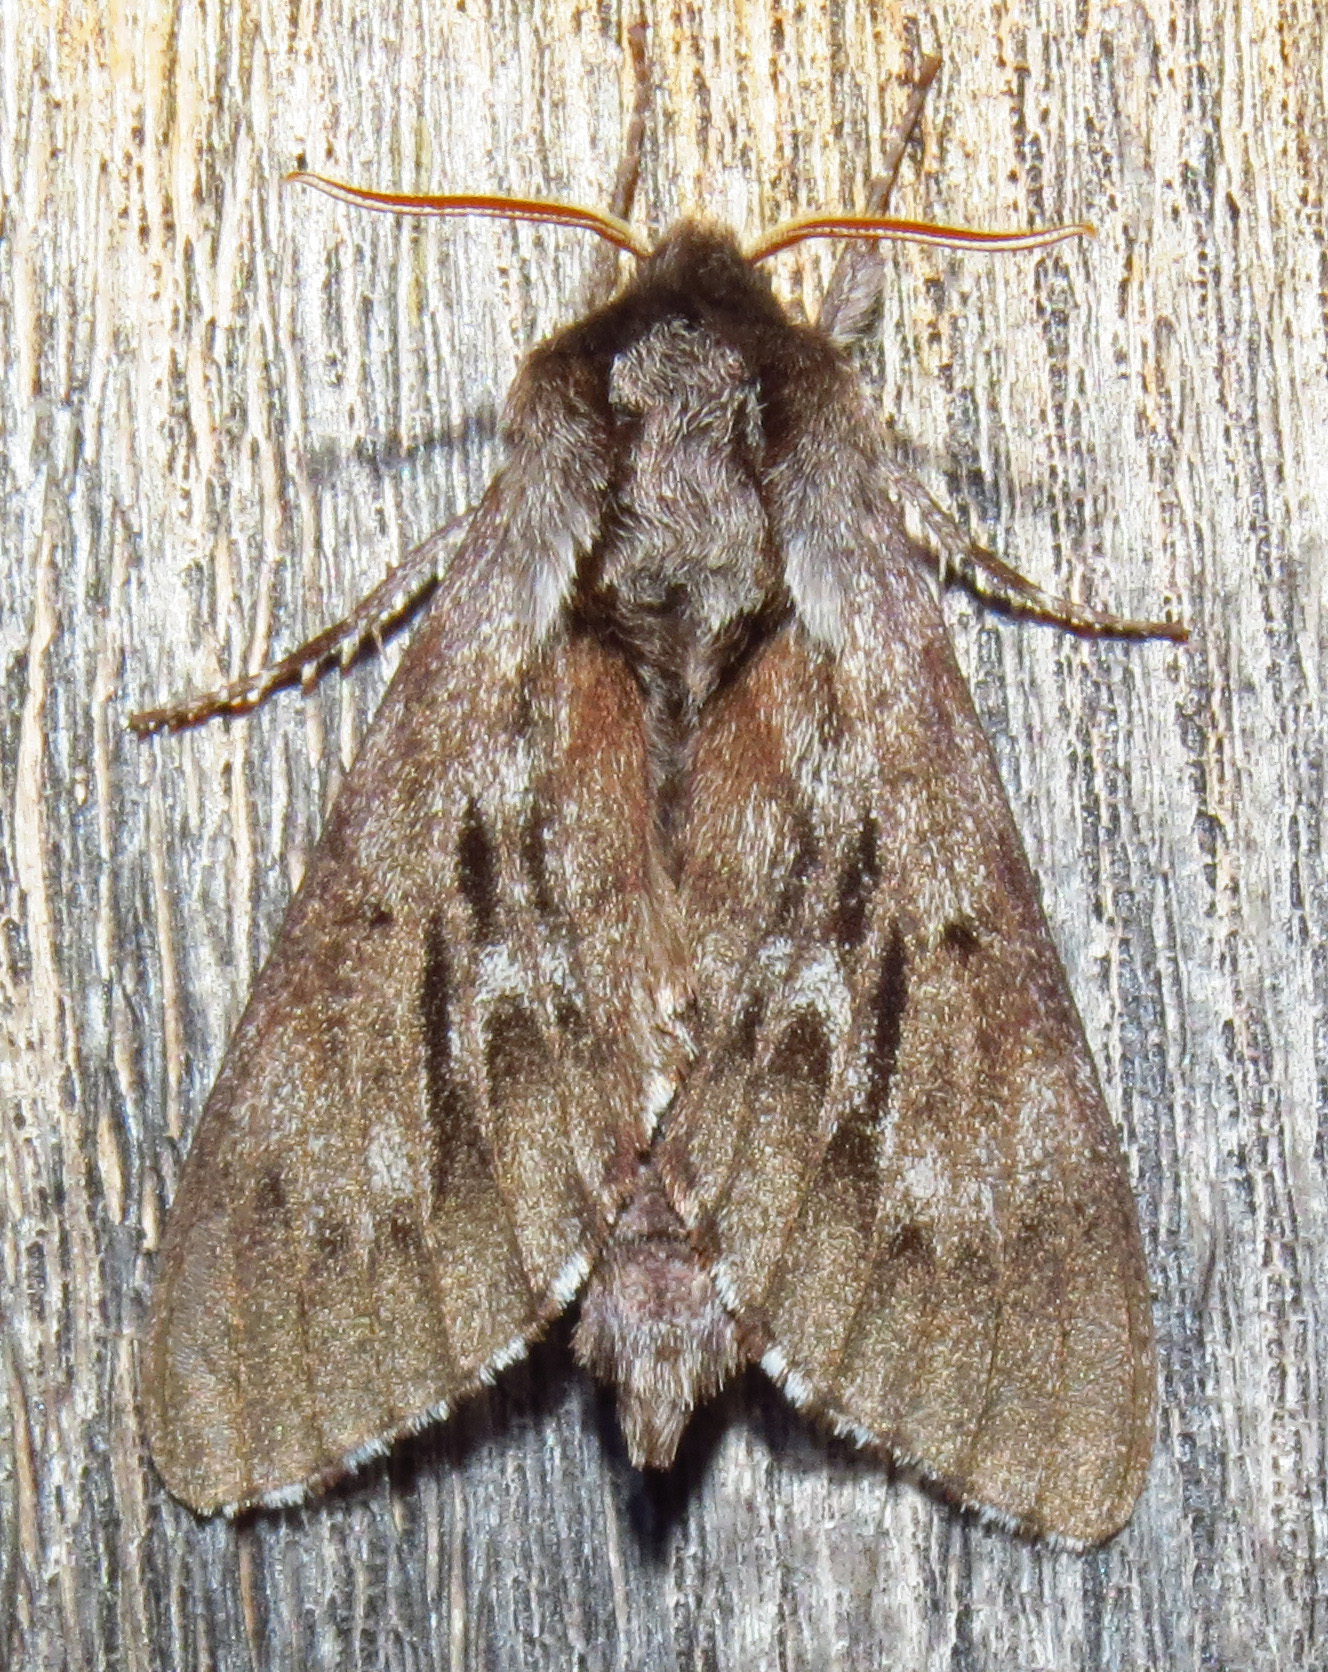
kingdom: Animalia
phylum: Arthropoda
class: Insecta
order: Lepidoptera
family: Sphingidae
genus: Lapara
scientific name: Lapara bombycoides
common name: Northern pine sphinx
